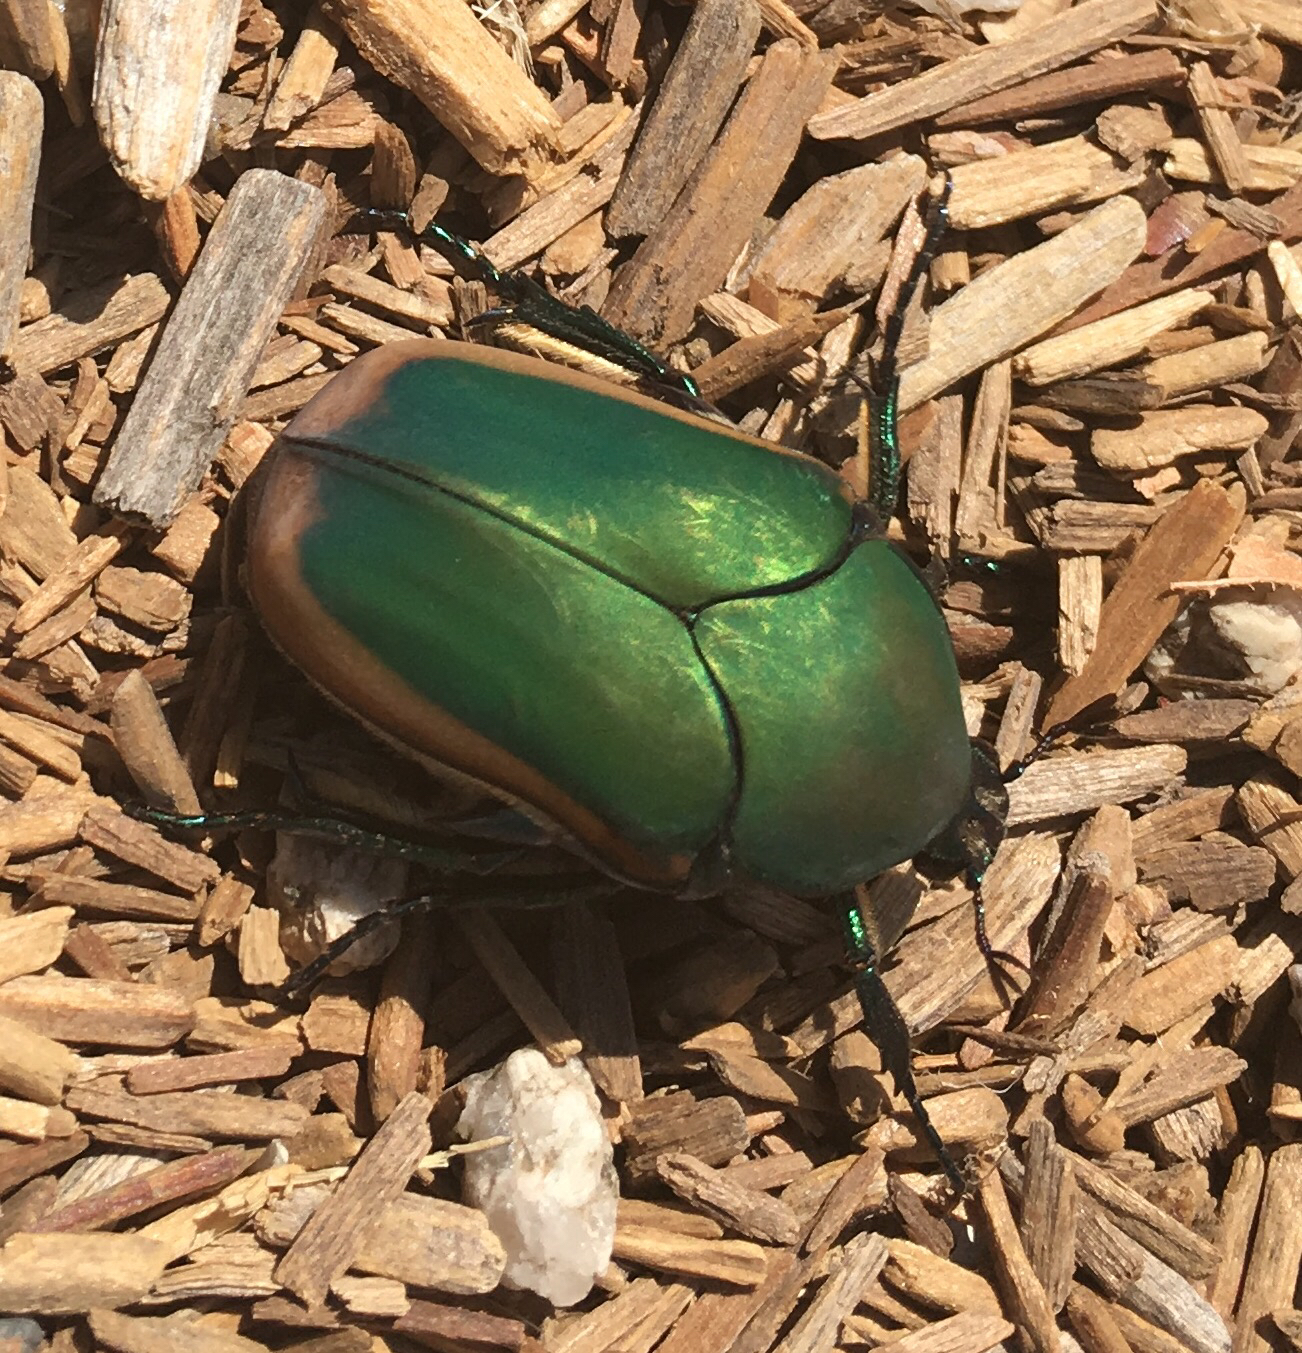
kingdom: Animalia
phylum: Arthropoda
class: Insecta
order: Coleoptera
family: Scarabaeidae
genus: Cotinis
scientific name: Cotinis mutabilis
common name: Figeater beetle
